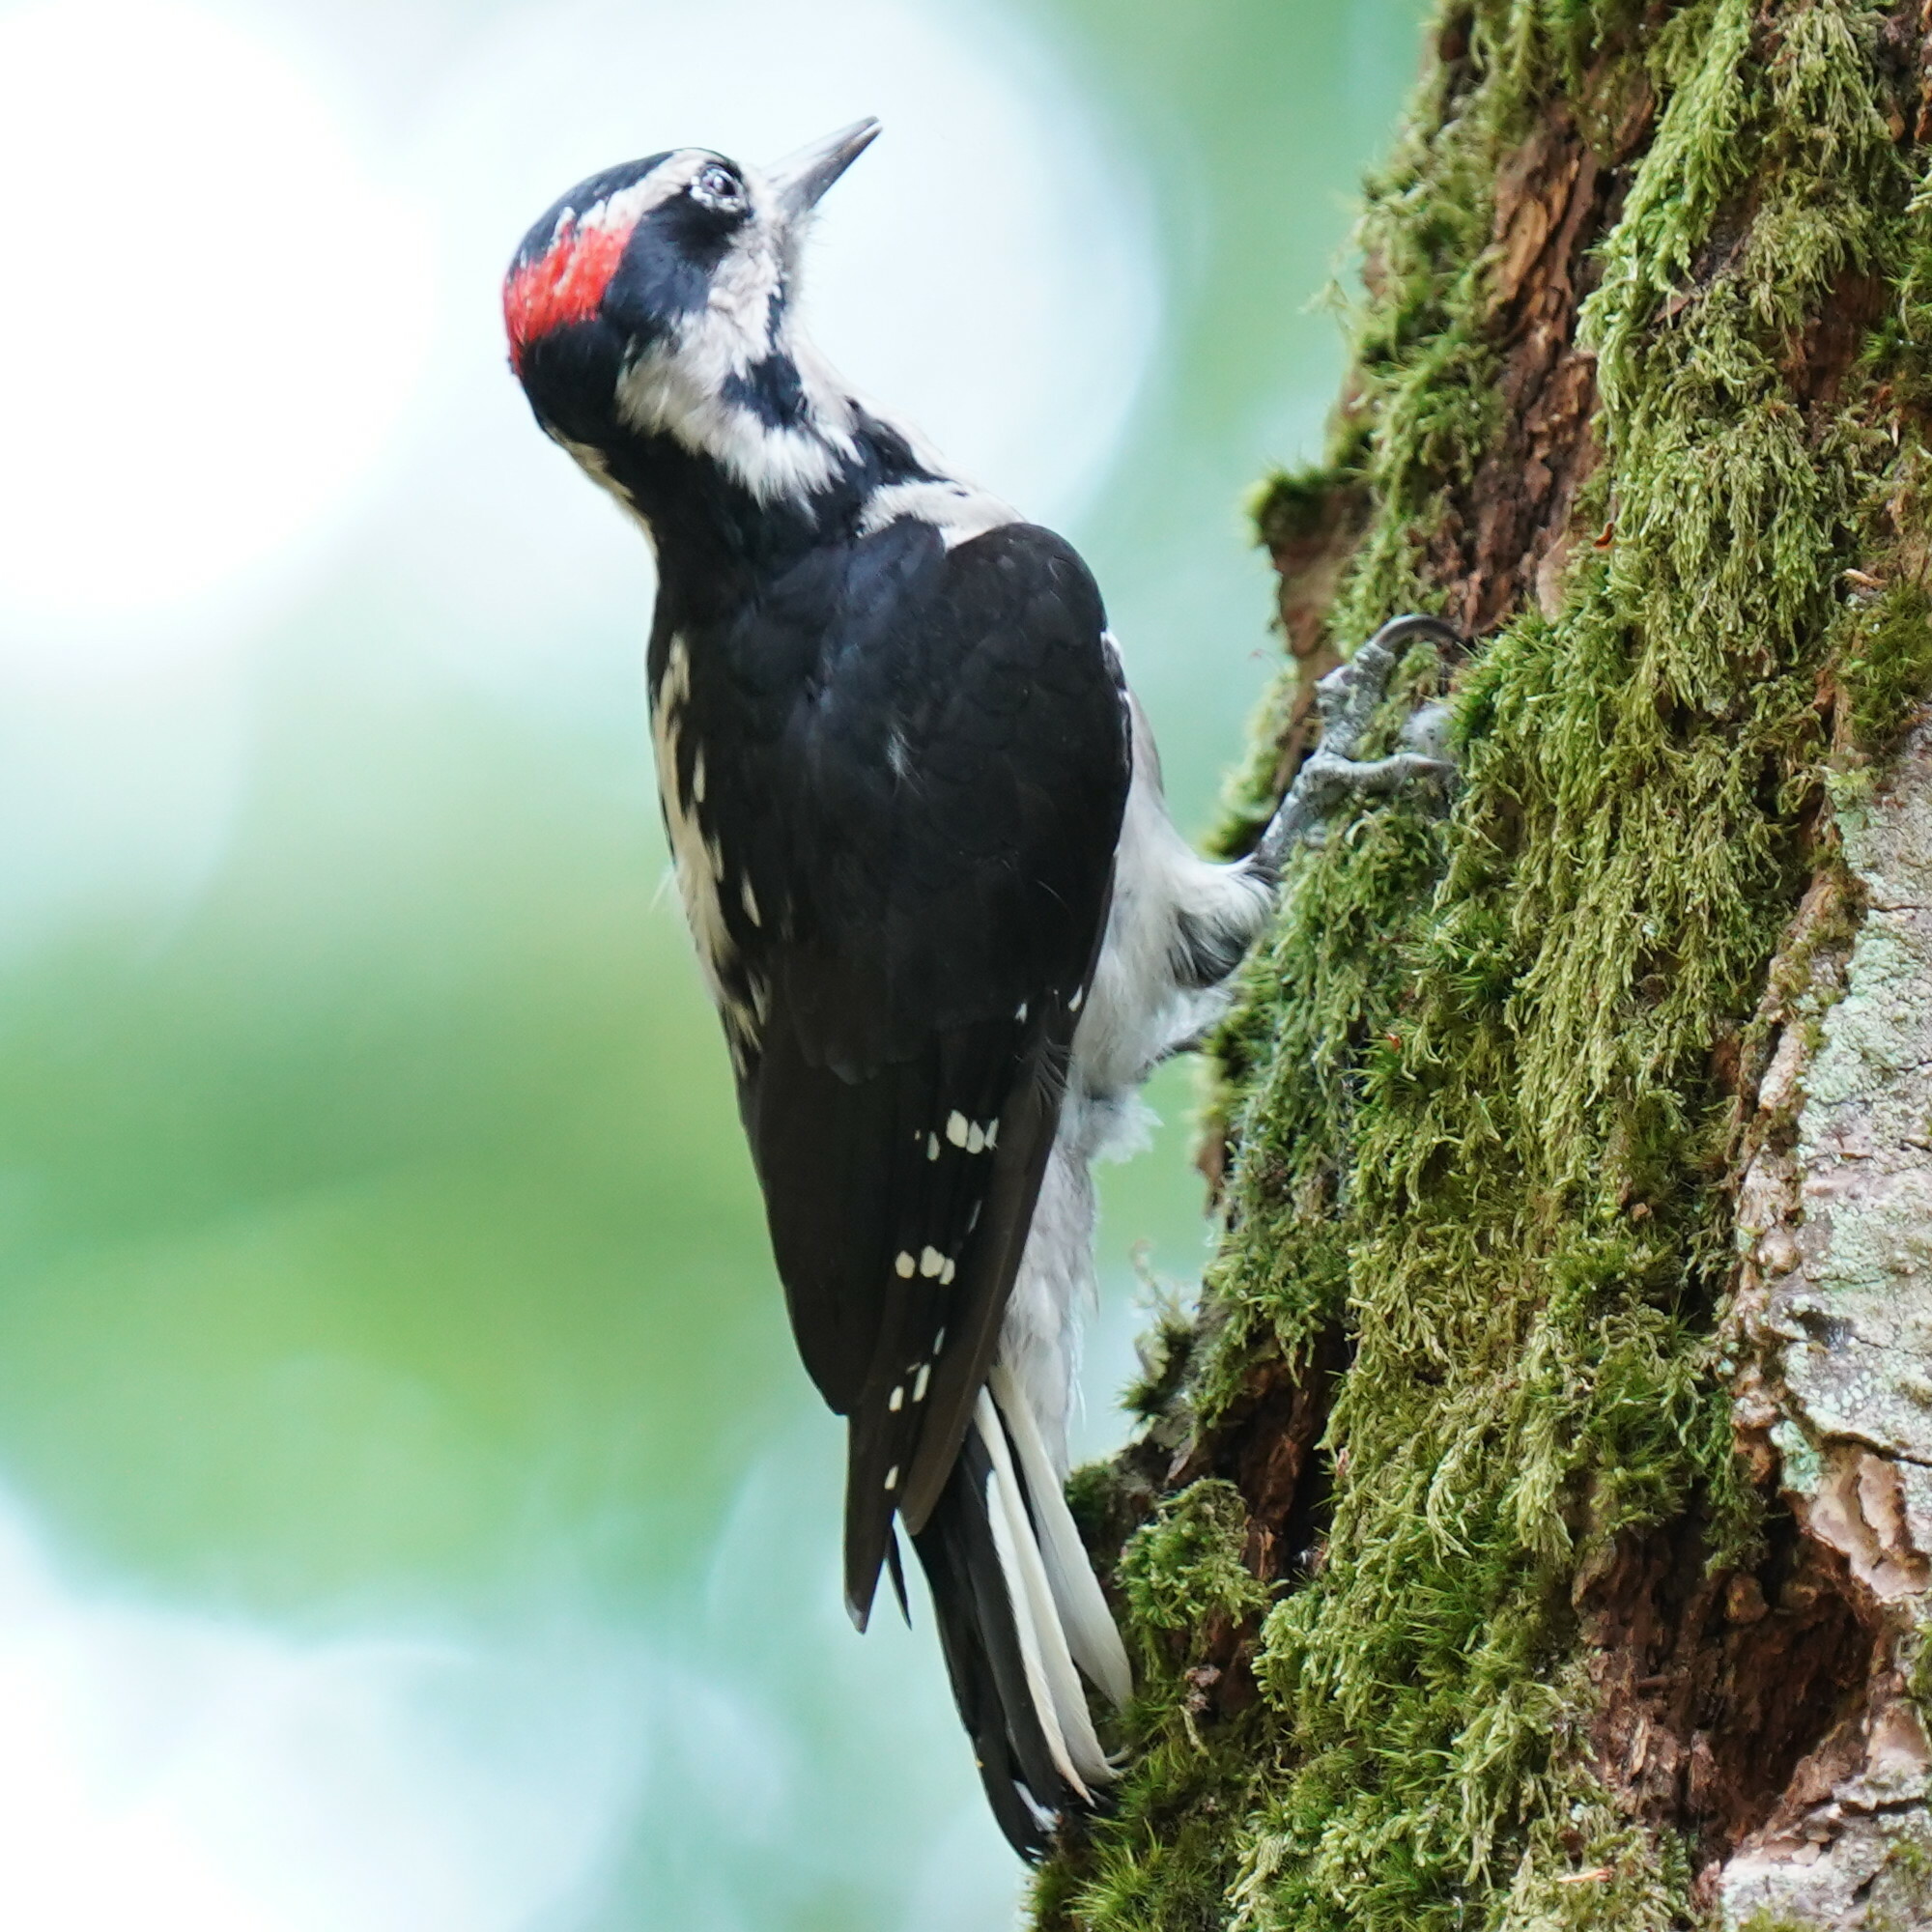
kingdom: Animalia
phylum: Chordata
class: Aves
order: Piciformes
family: Picidae
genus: Leuconotopicus
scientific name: Leuconotopicus villosus
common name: Hairy woodpecker
